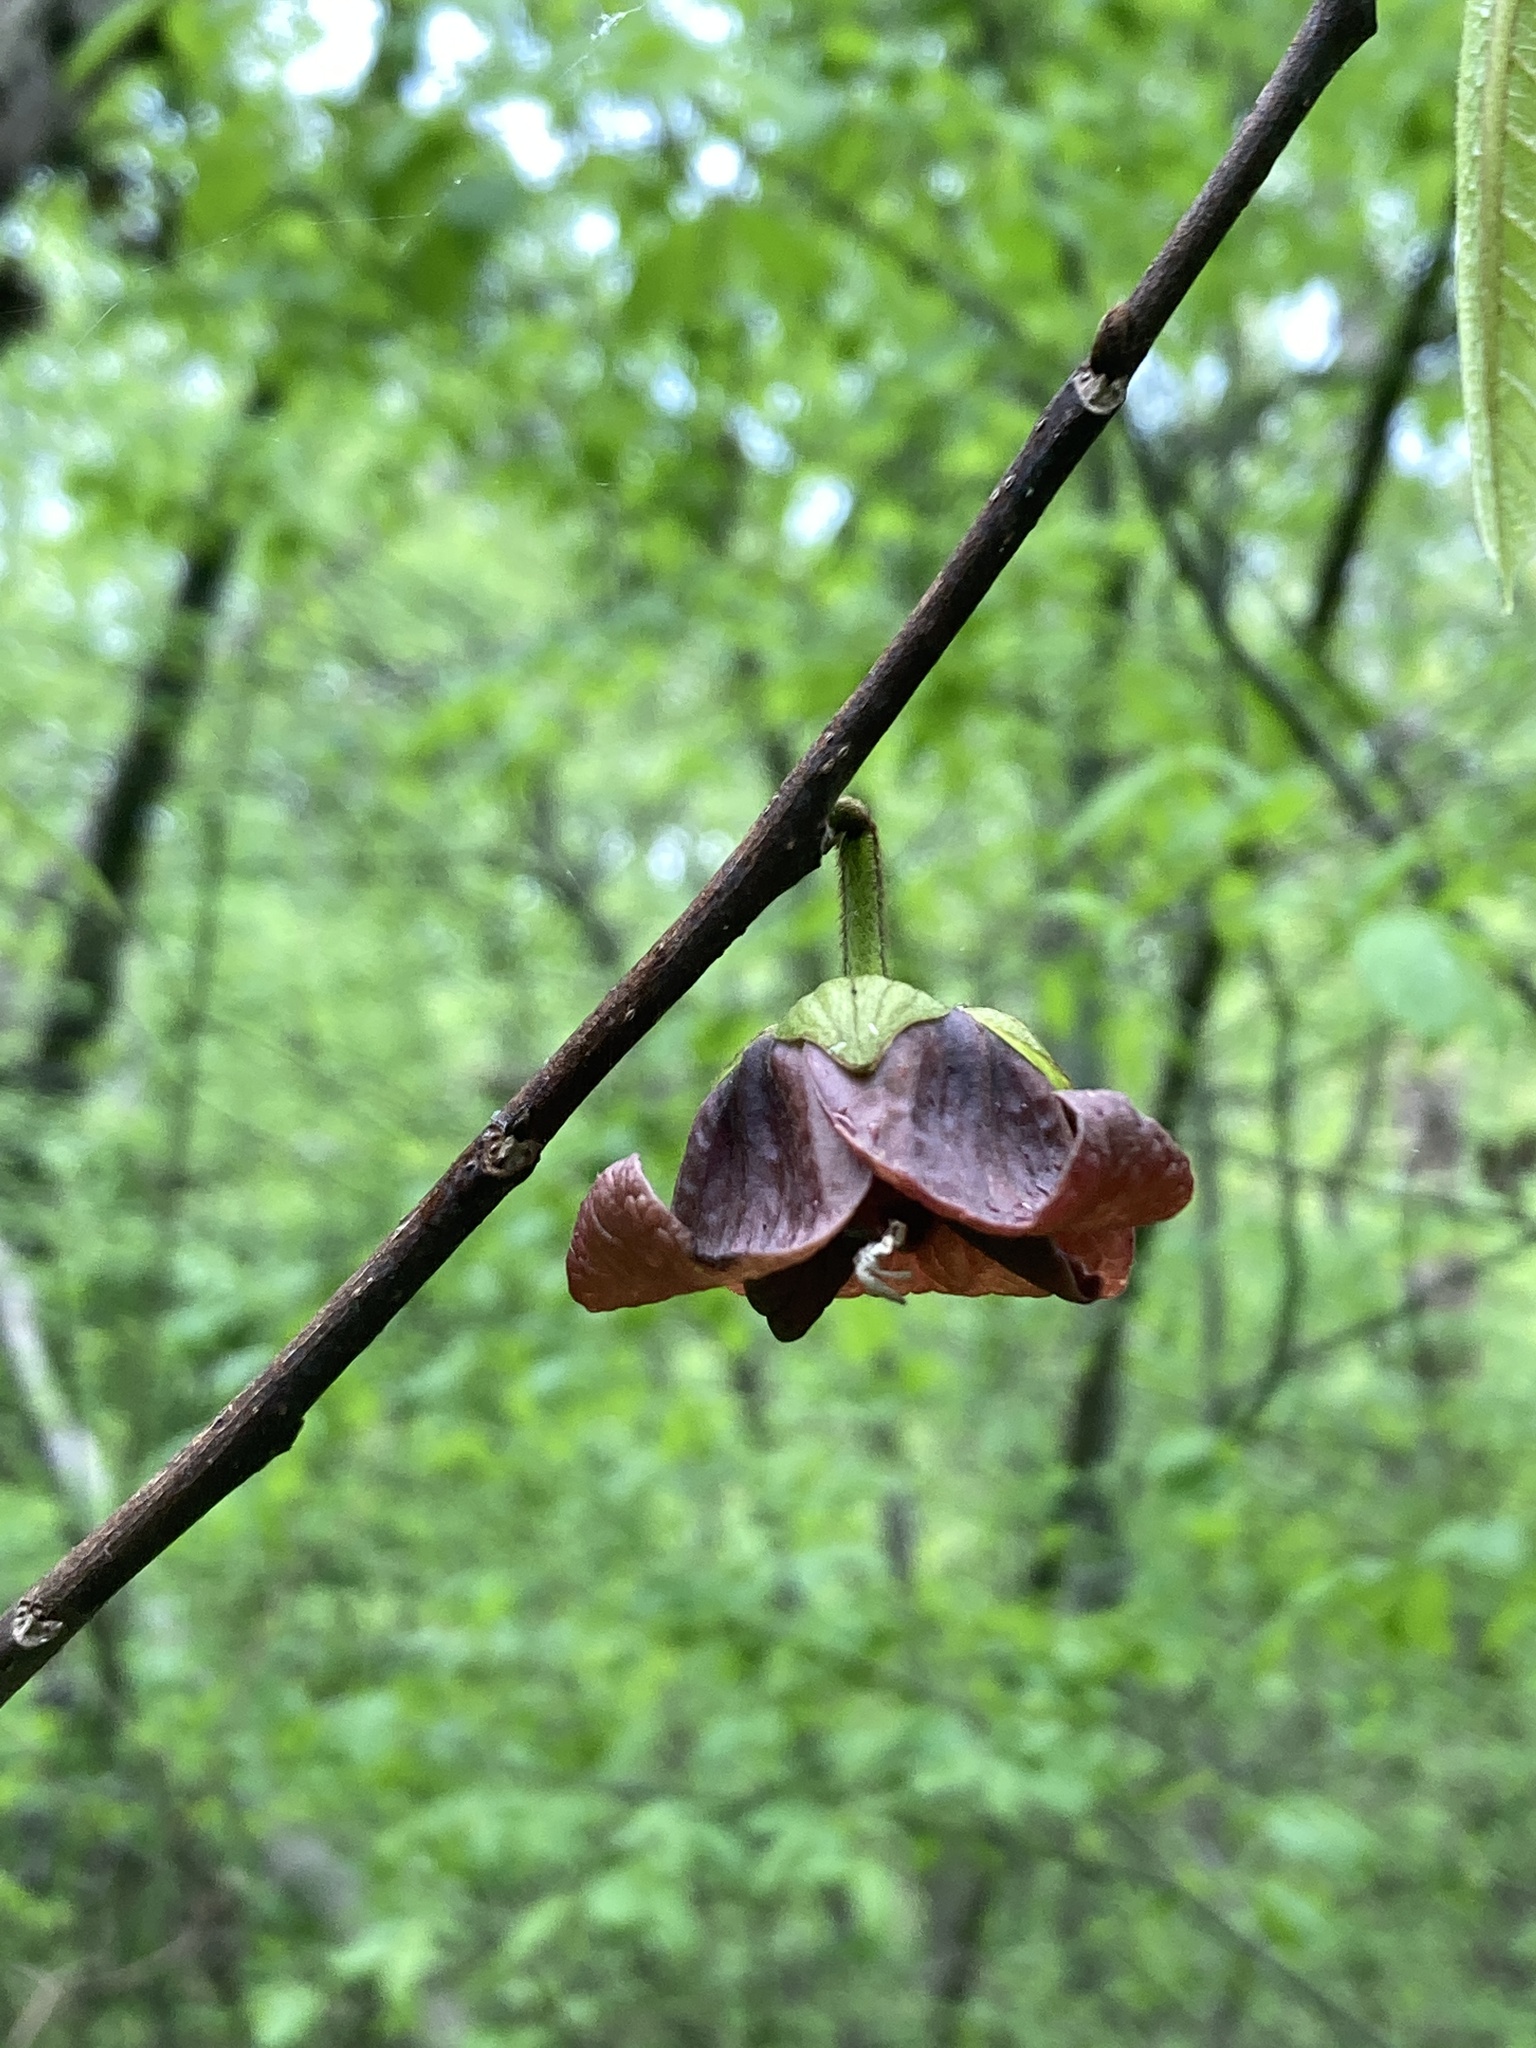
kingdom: Plantae
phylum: Tracheophyta
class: Magnoliopsida
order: Magnoliales
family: Annonaceae
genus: Asimina
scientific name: Asimina triloba
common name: Dog-banana
